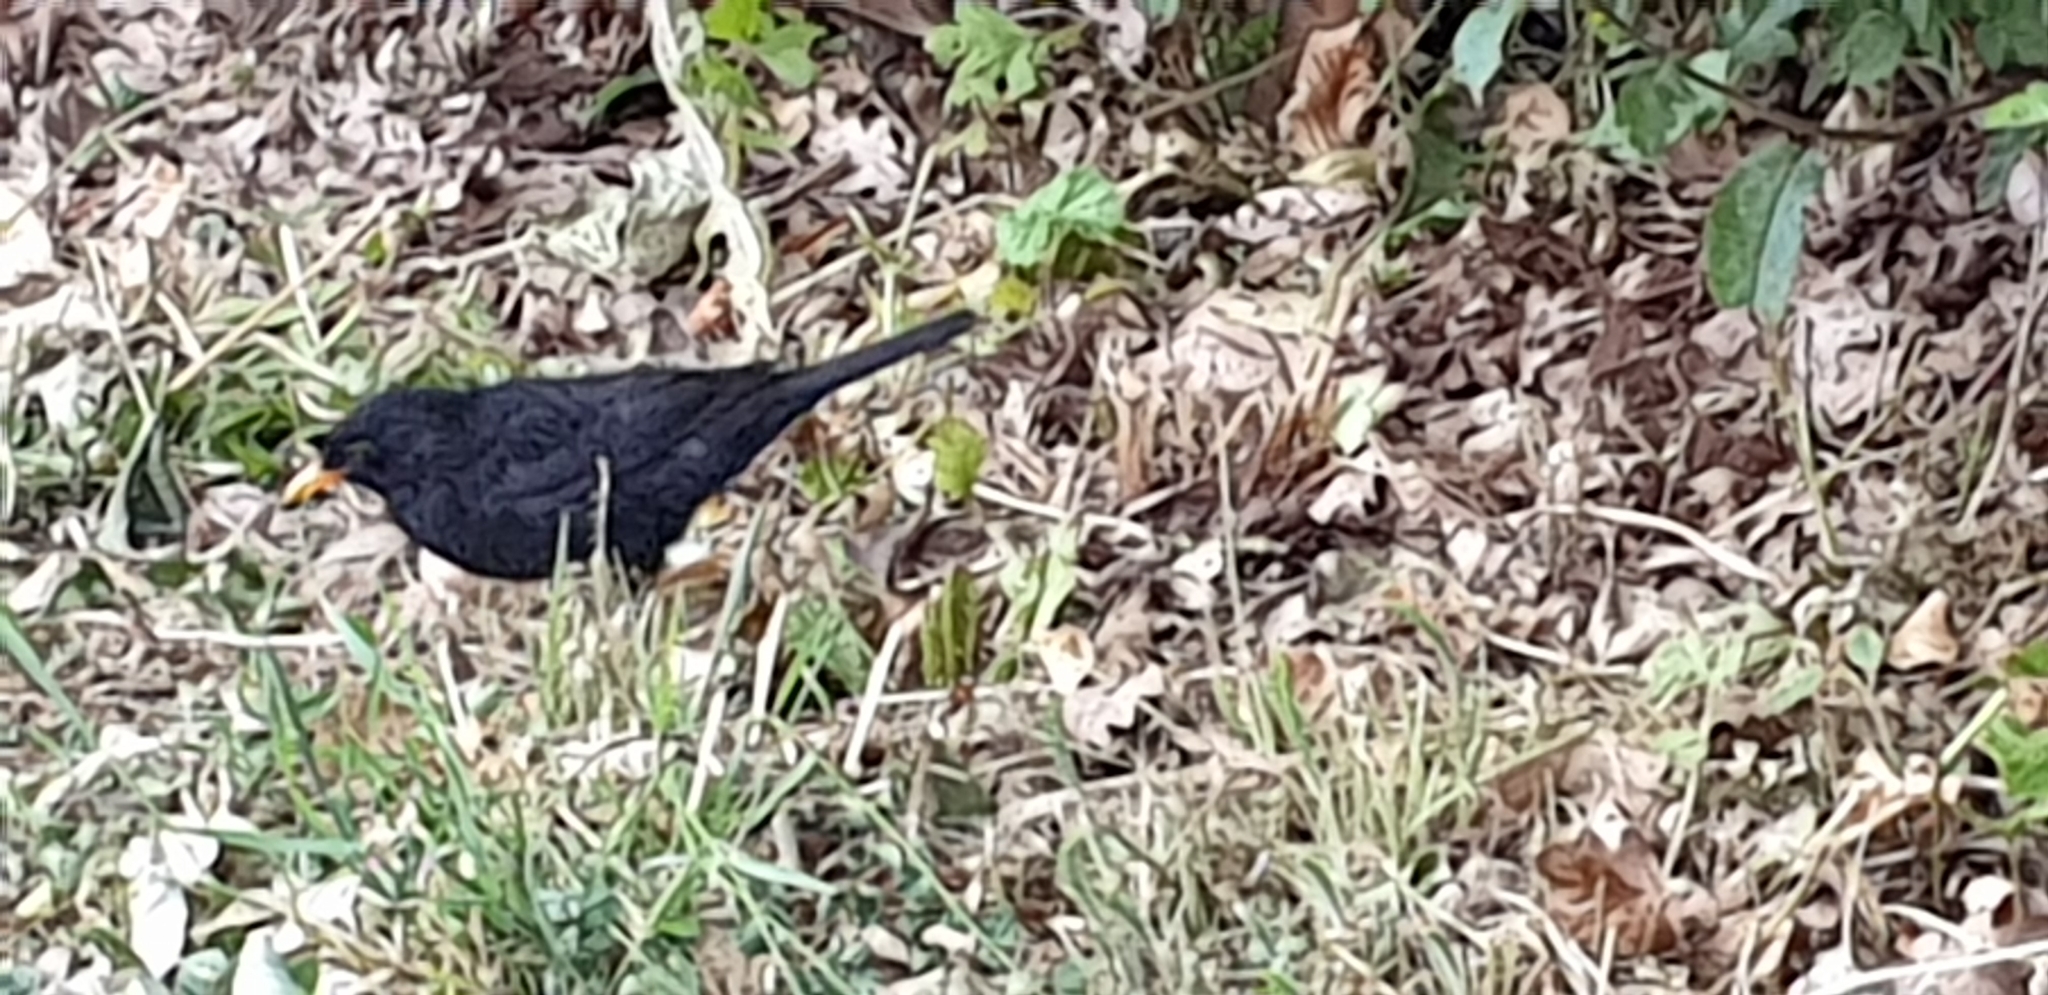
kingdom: Animalia
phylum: Chordata
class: Aves
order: Passeriformes
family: Turdidae
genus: Turdus
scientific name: Turdus merula
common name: Common blackbird
